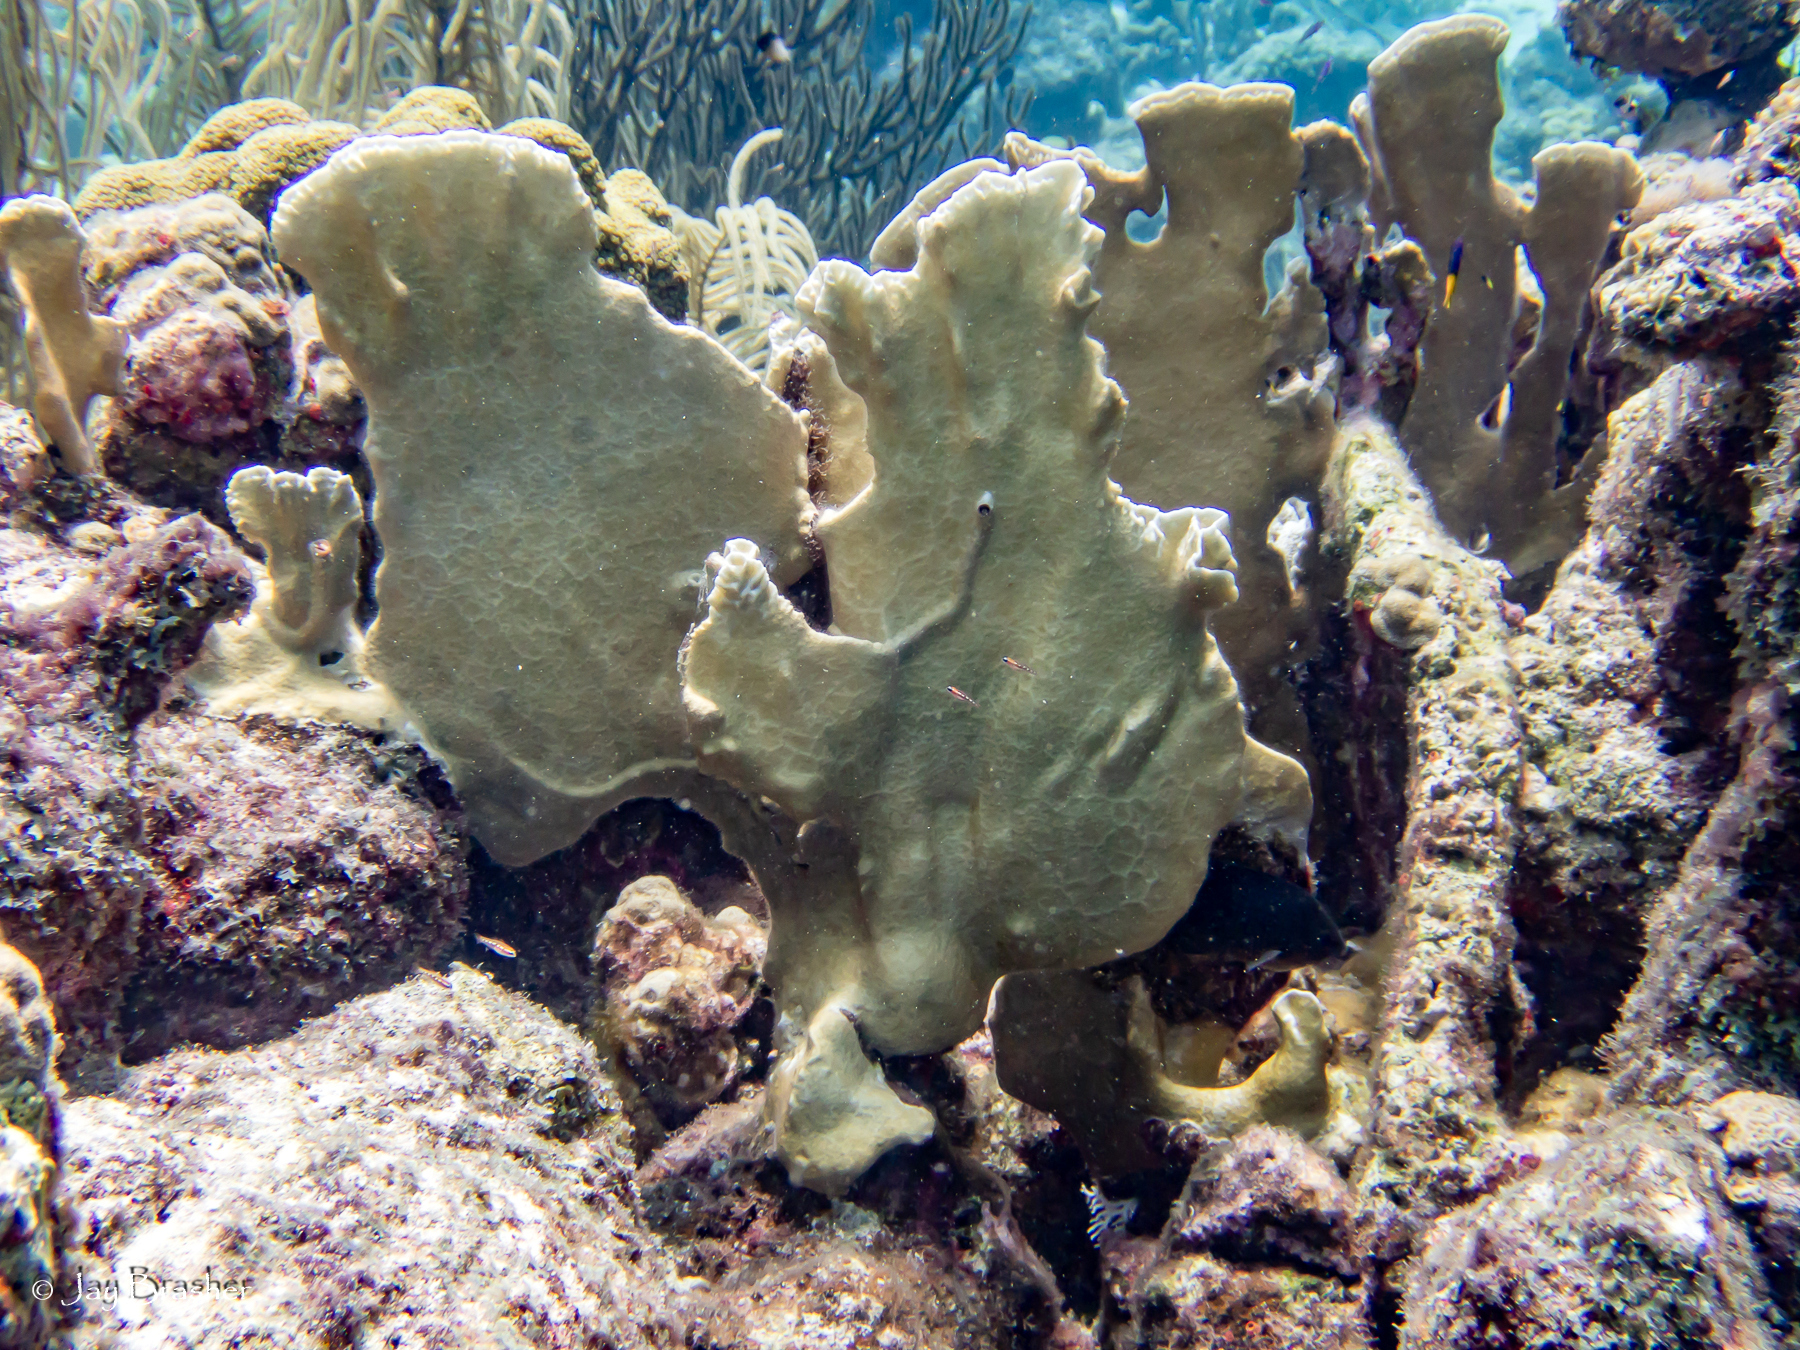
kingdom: Animalia
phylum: Cnidaria
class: Hydrozoa
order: Anthoathecata
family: Milleporidae
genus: Millepora
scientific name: Millepora complanata
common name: Bladed fire coral
